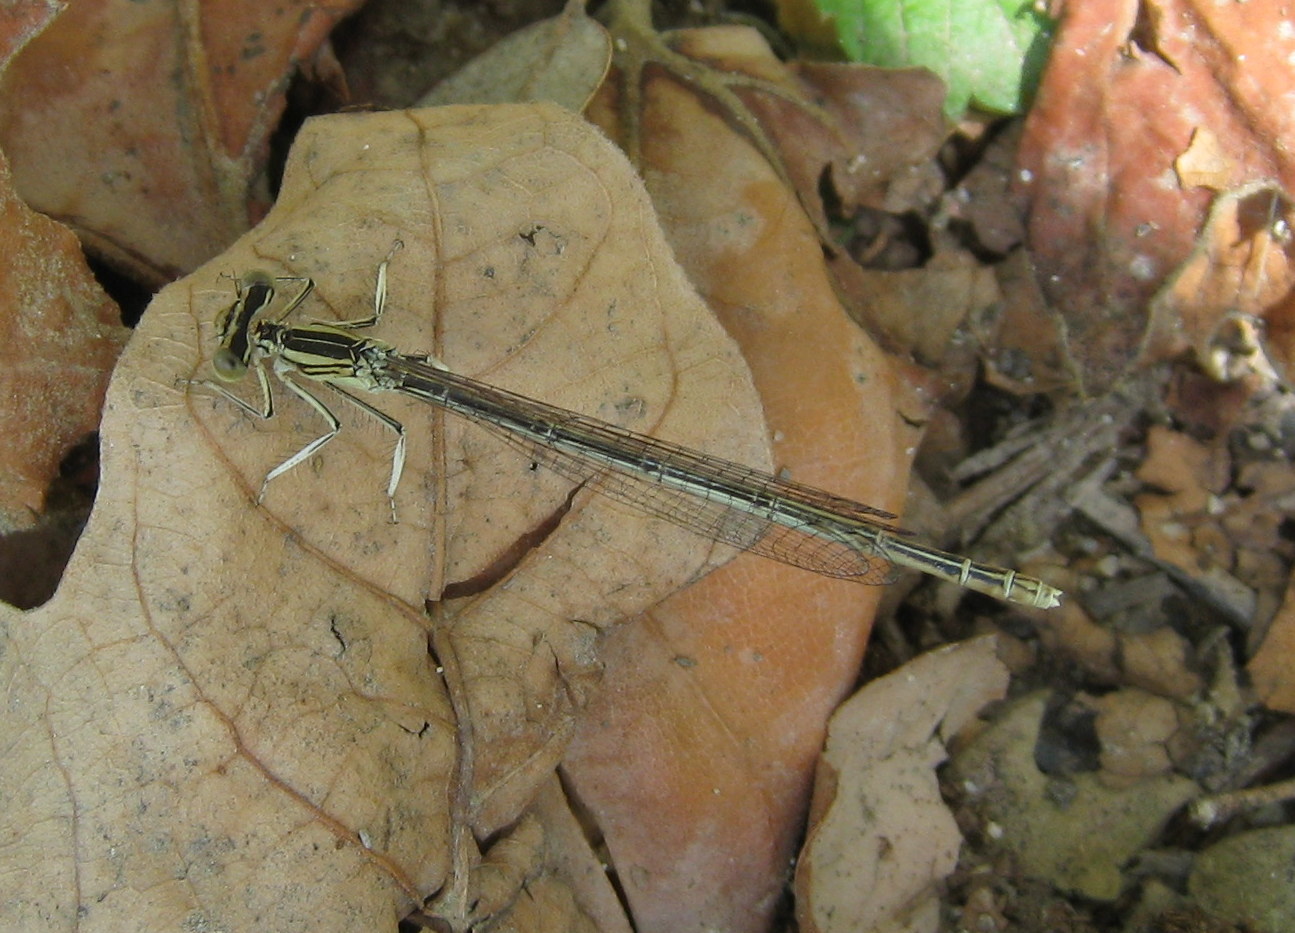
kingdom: Animalia
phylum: Arthropoda
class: Insecta
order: Odonata
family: Platycnemididae
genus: Platycnemis
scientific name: Platycnemis pennipes
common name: White-legged damselfly
